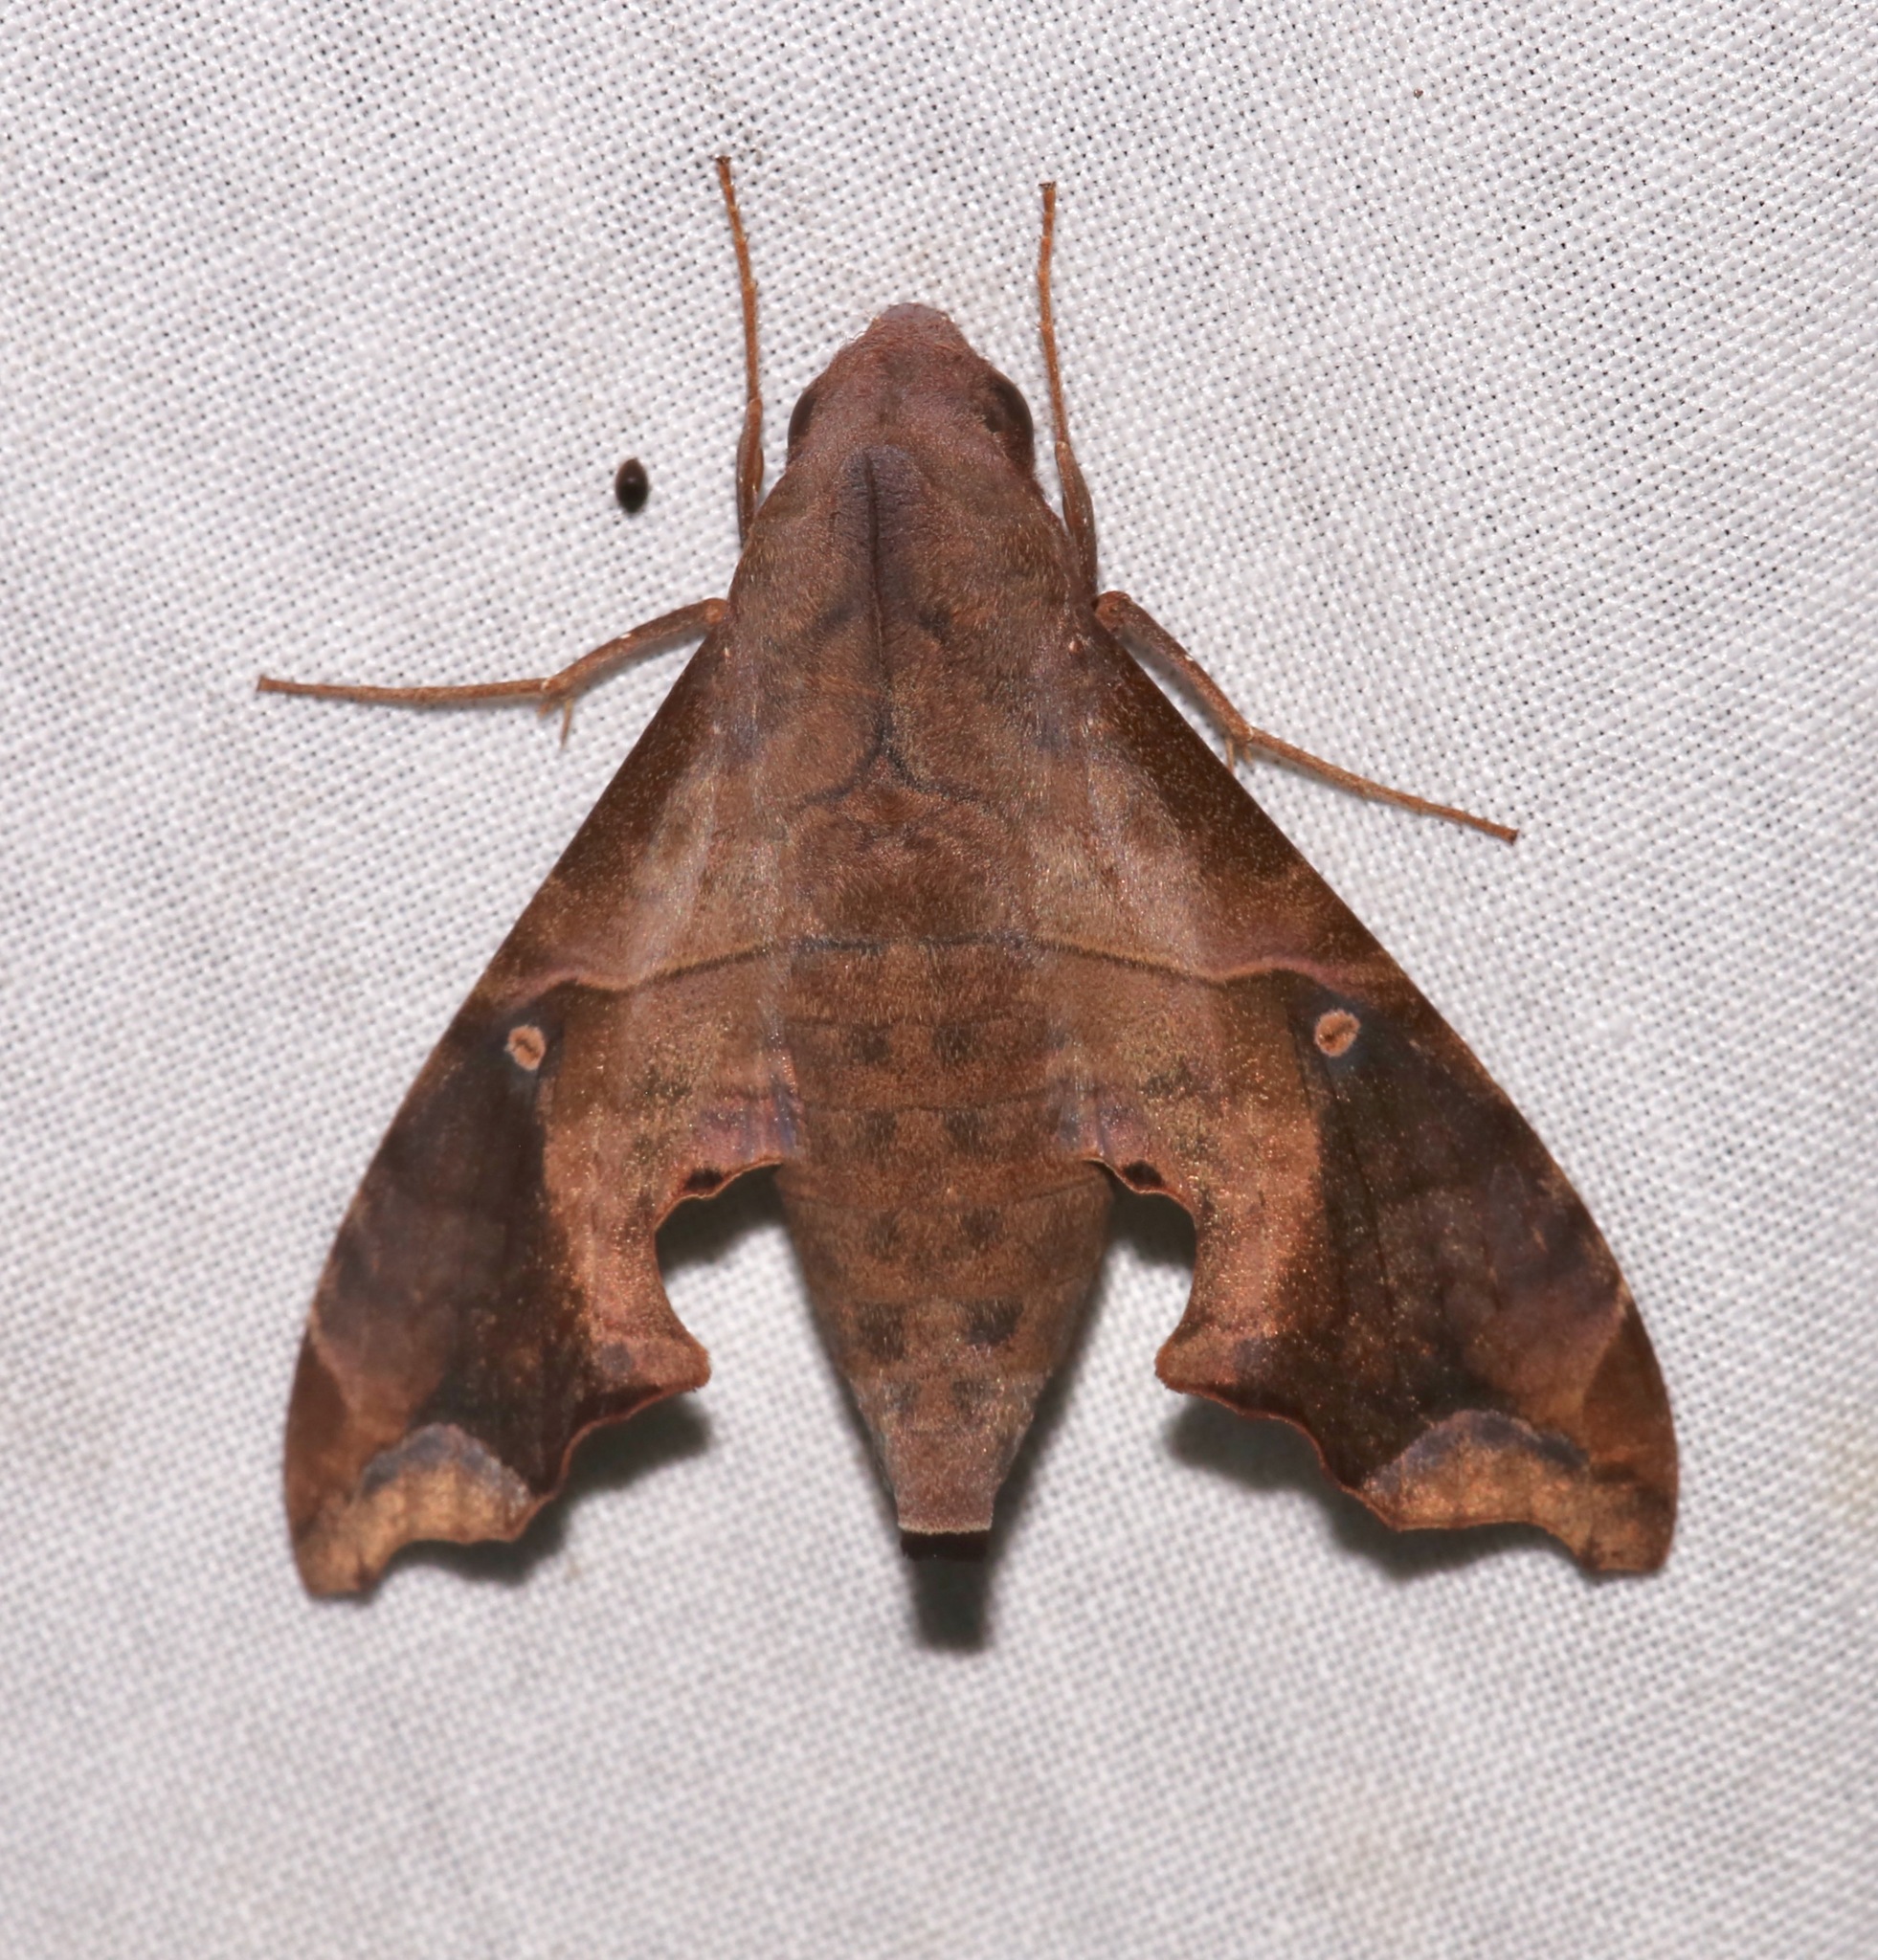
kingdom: Animalia
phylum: Arthropoda
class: Insecta
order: Lepidoptera
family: Sphingidae
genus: Enyo
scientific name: Enyo lugubris
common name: Mournful sphinx
